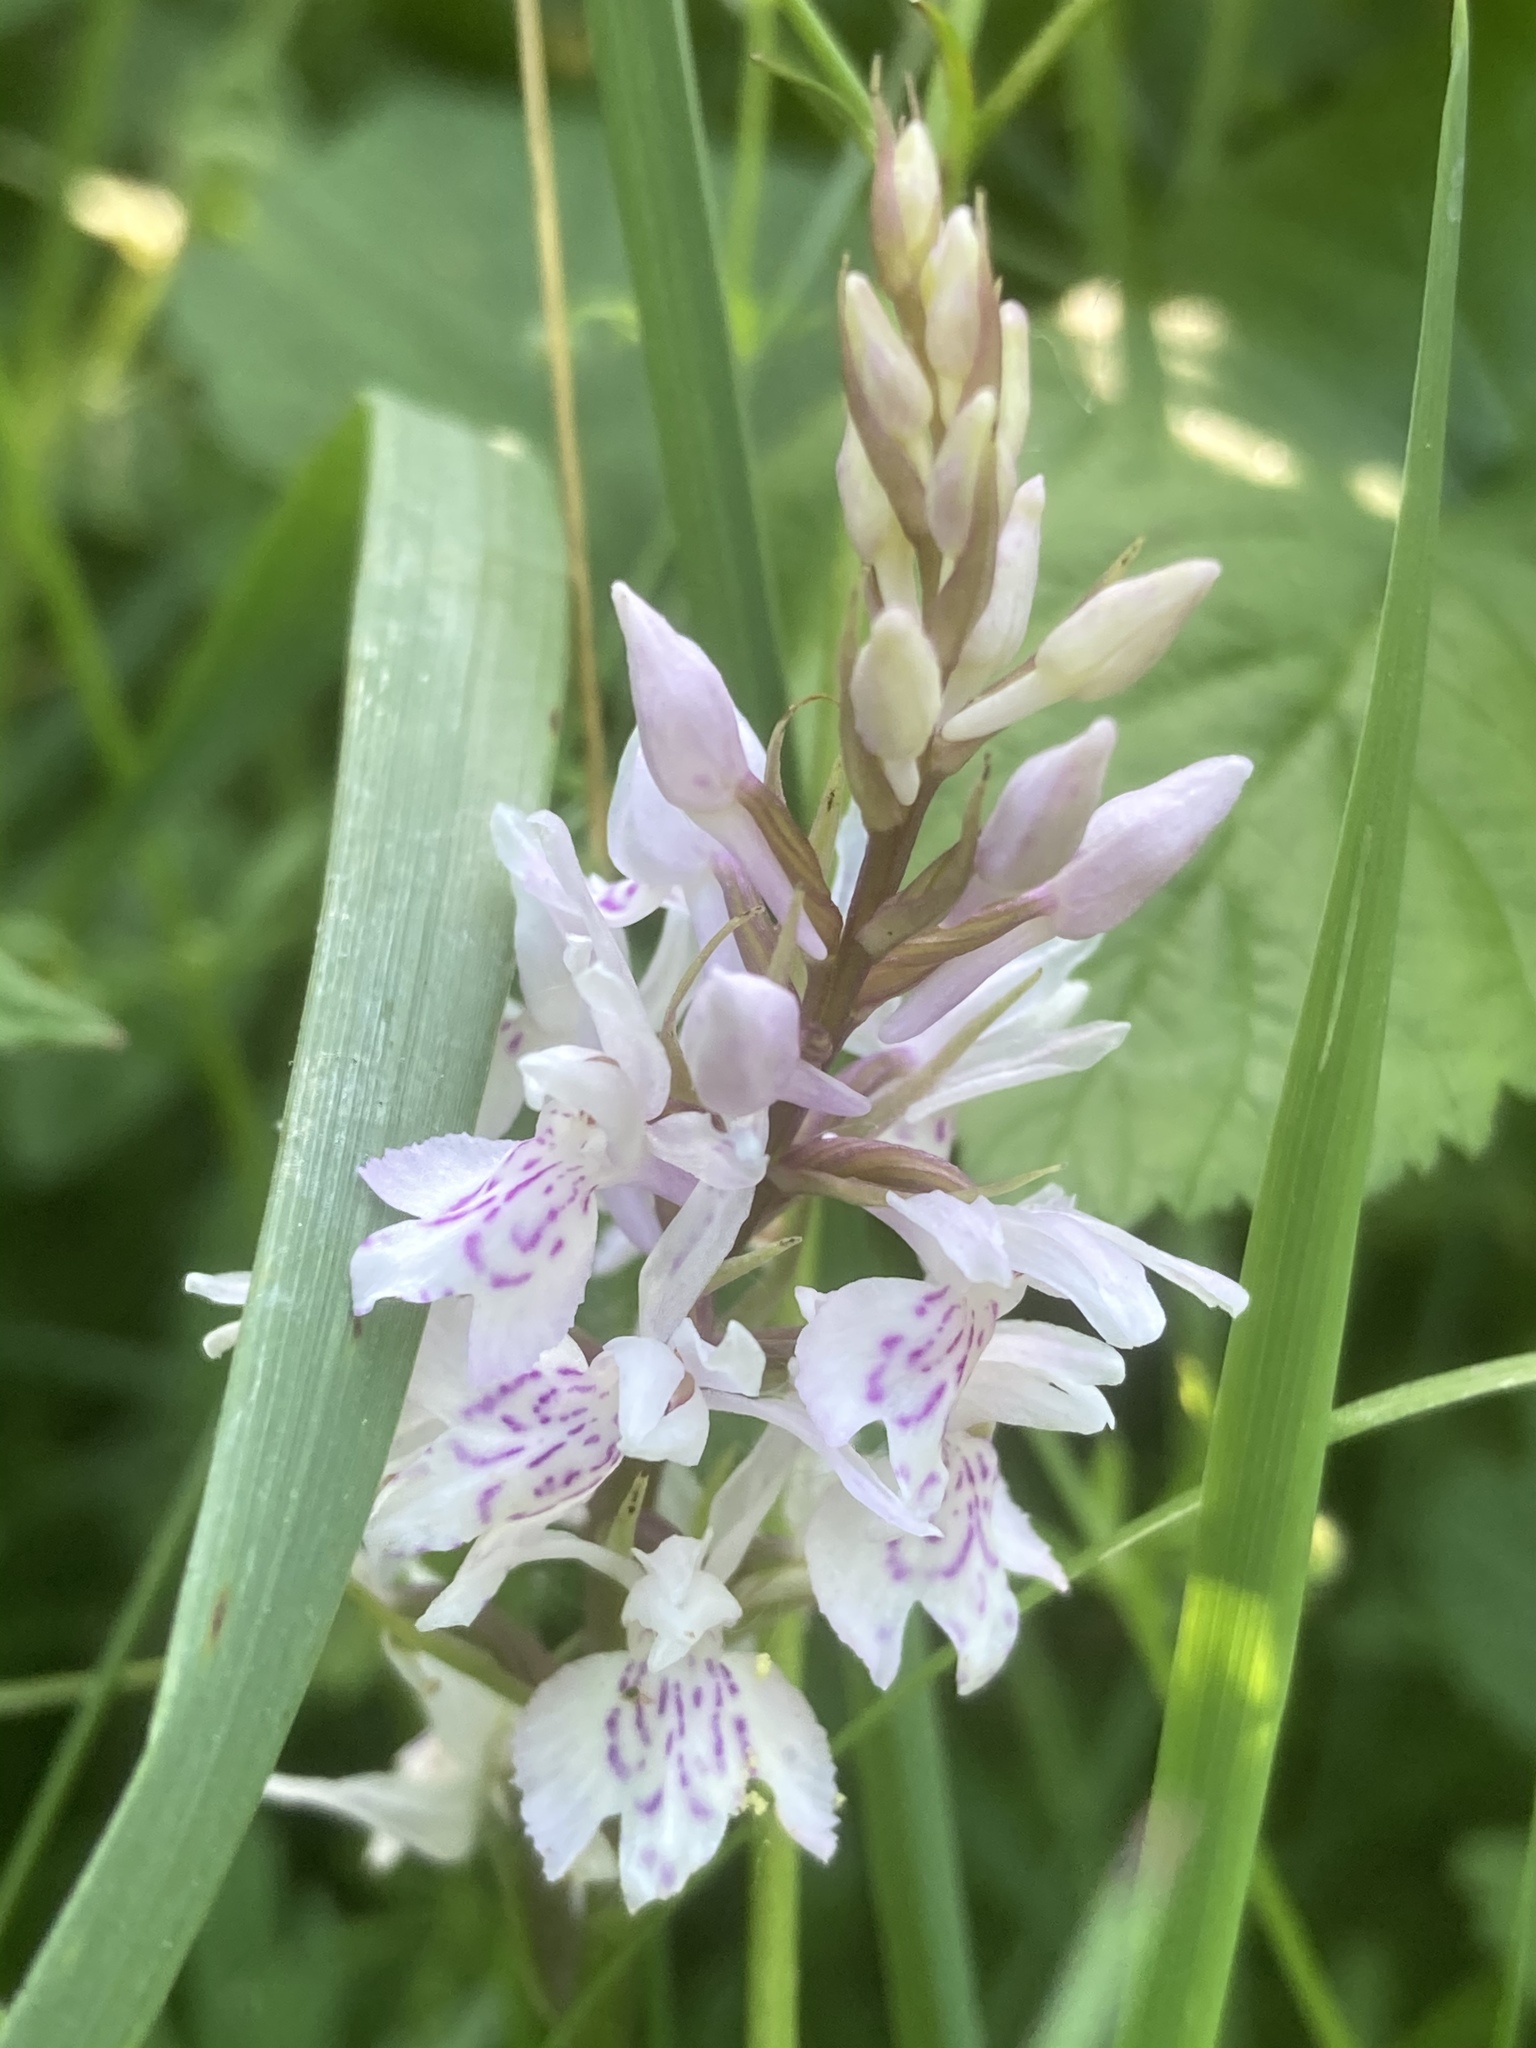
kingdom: Plantae
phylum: Tracheophyta
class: Liliopsida
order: Asparagales
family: Orchidaceae
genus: Dactylorhiza
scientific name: Dactylorhiza maculata
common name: Heath spotted-orchid
